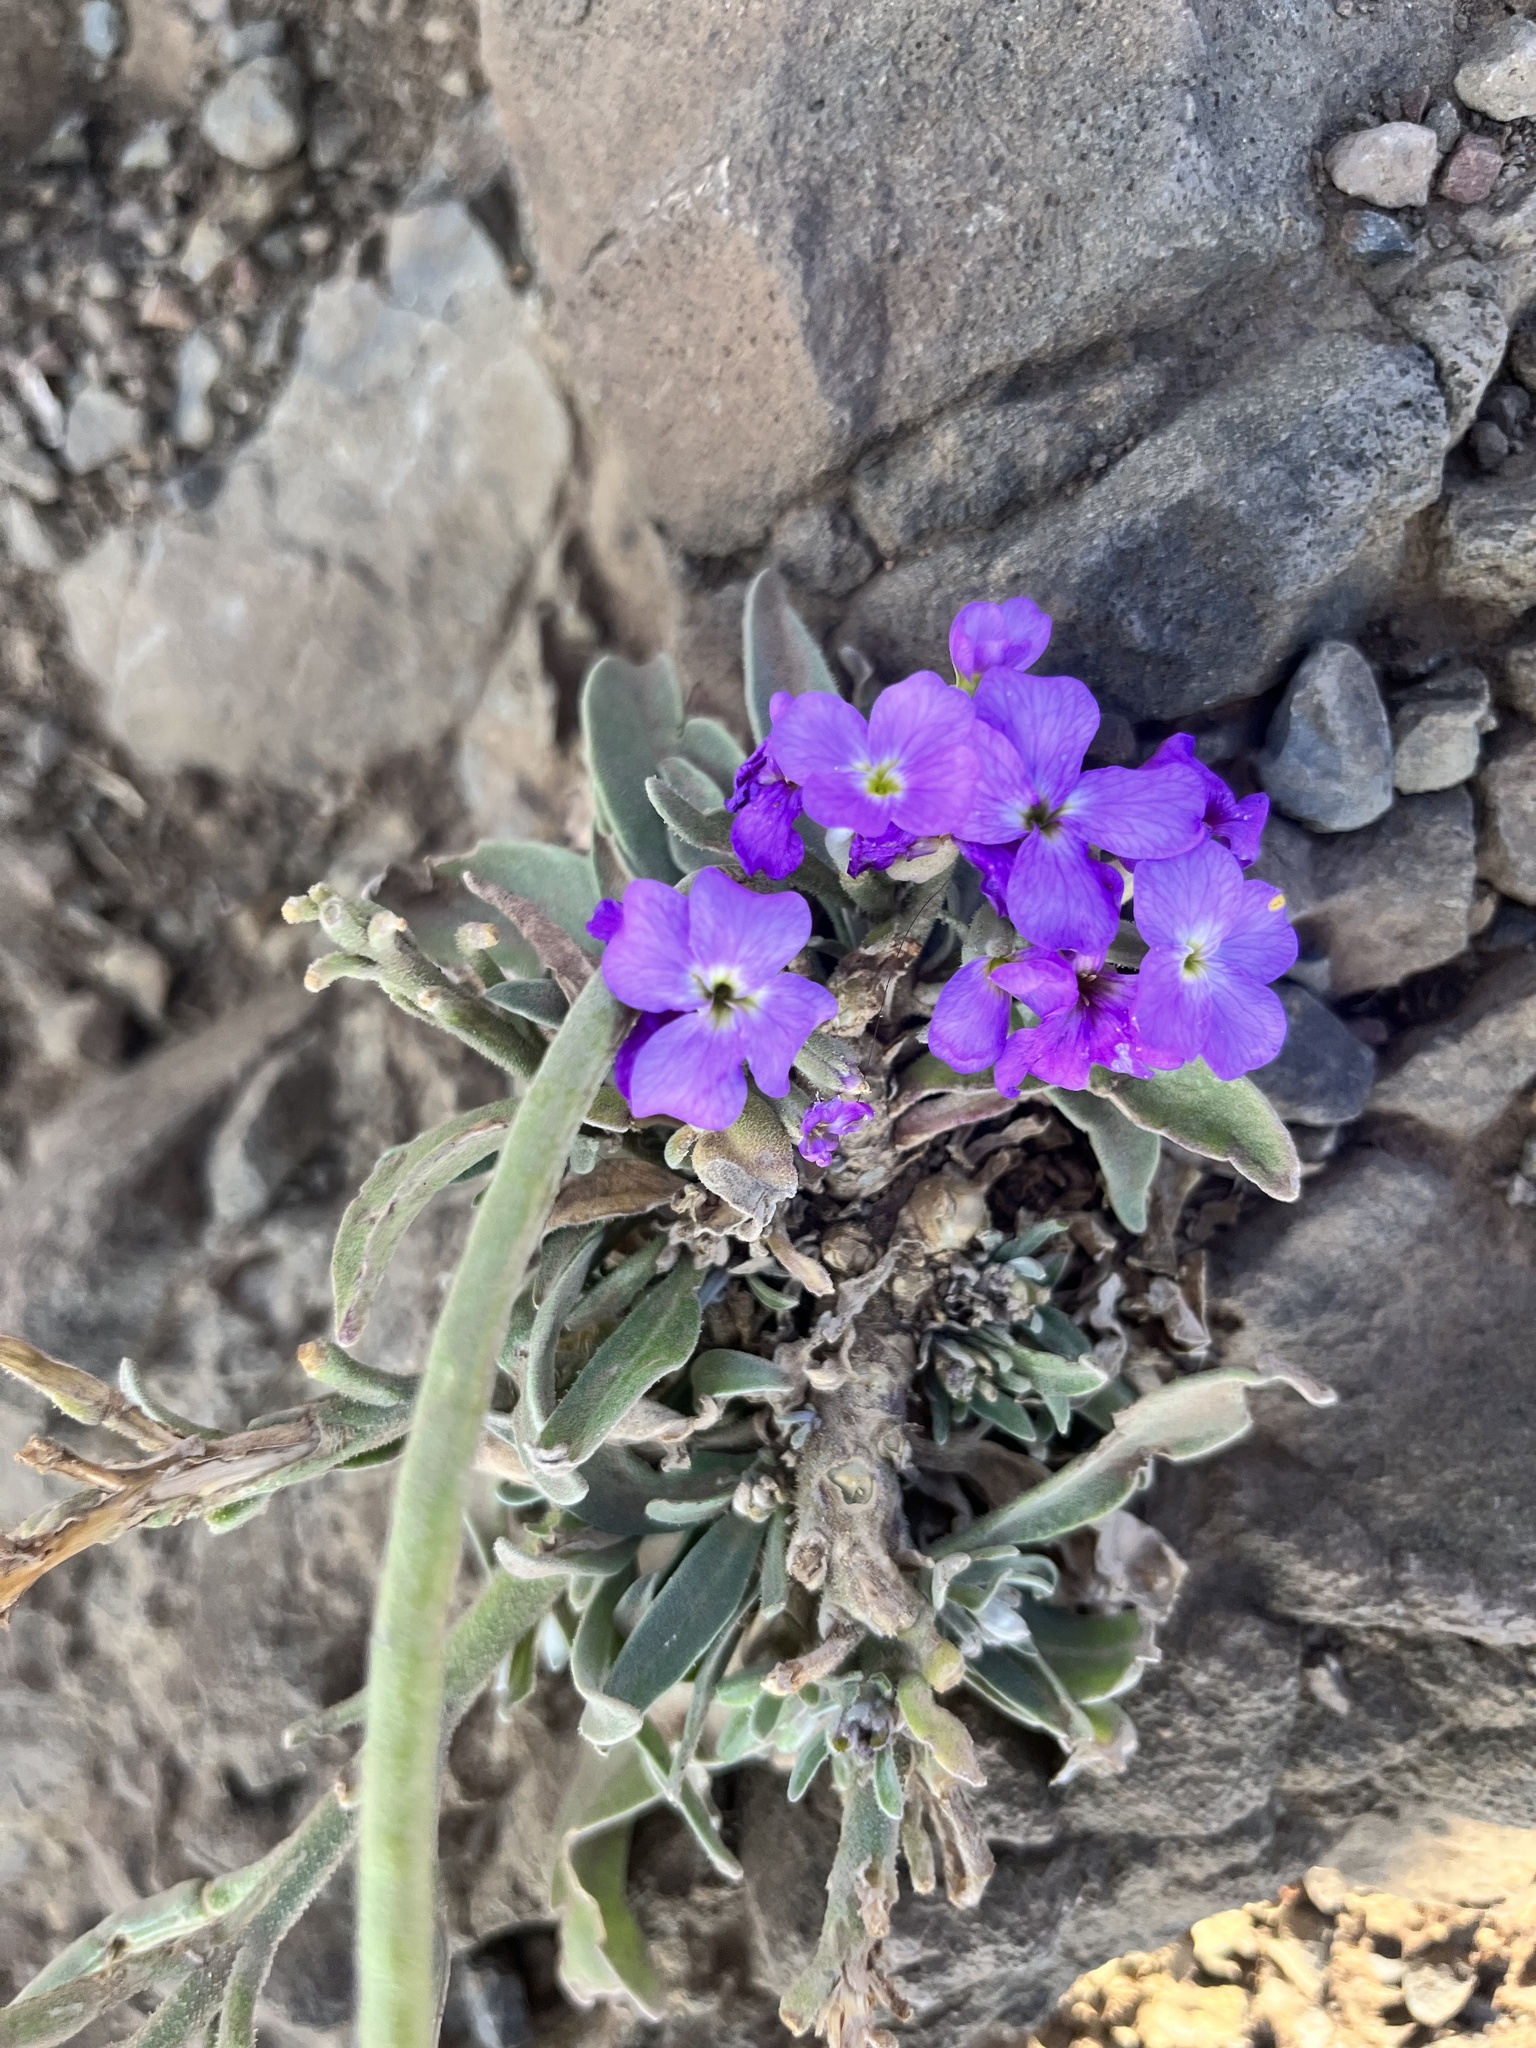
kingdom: Plantae
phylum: Tracheophyta
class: Magnoliopsida
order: Brassicales
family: Brassicaceae
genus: Matthiola
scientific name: Matthiola maderensis
